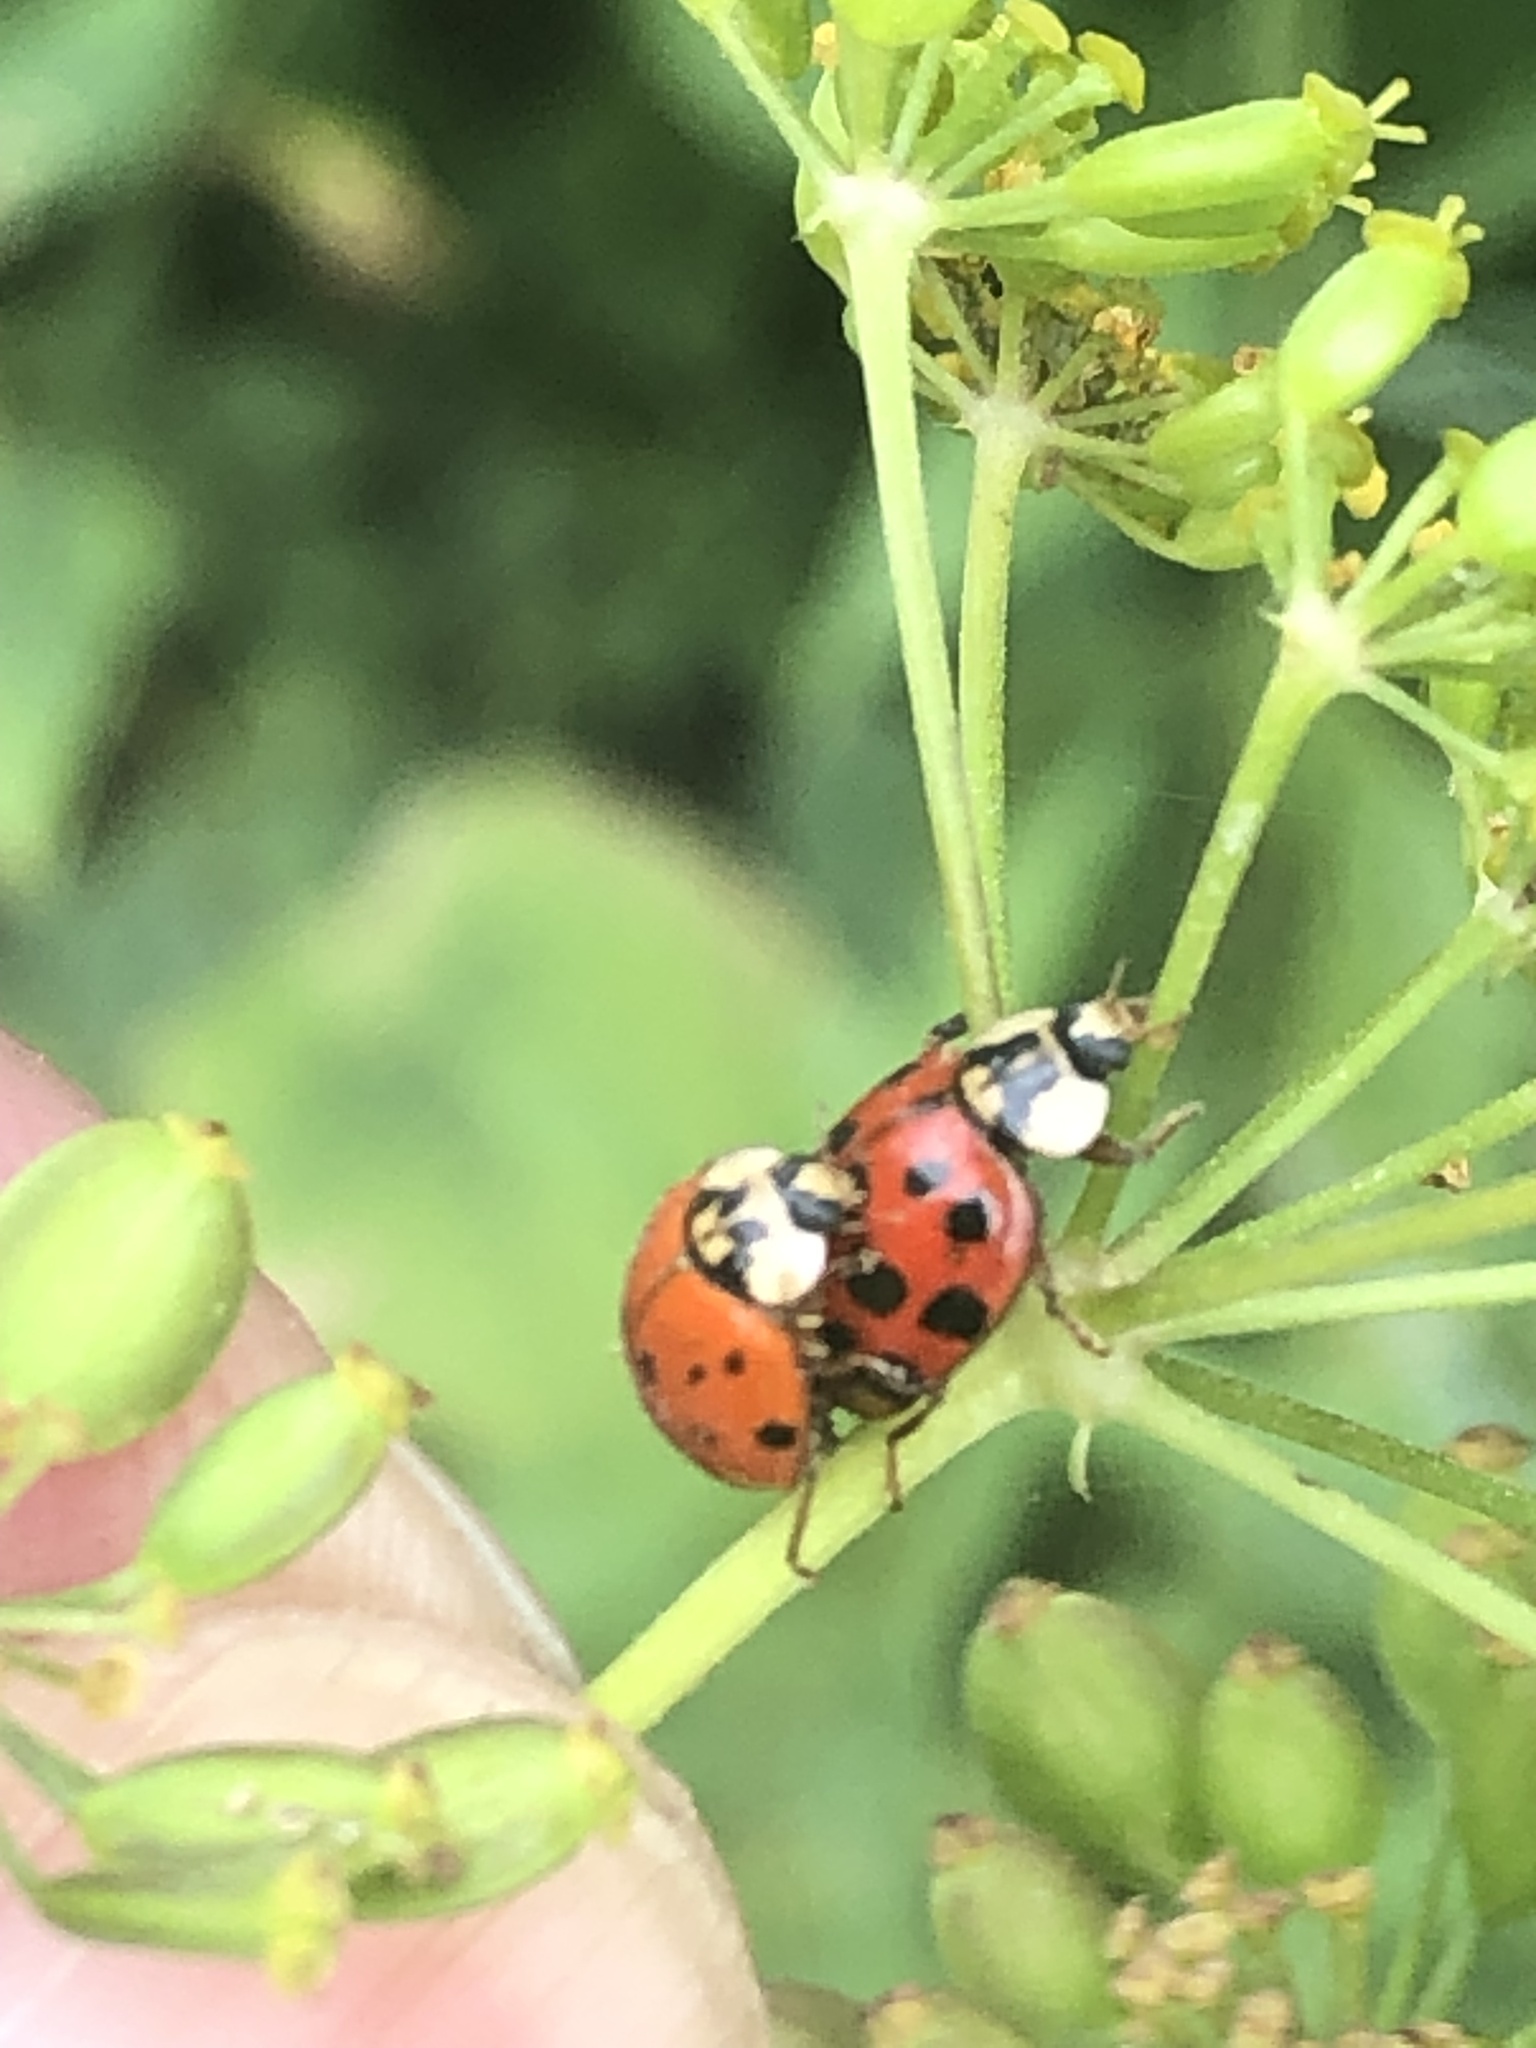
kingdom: Animalia
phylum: Arthropoda
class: Insecta
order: Coleoptera
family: Coccinellidae
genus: Harmonia
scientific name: Harmonia axyridis
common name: Harlequin ladybird
